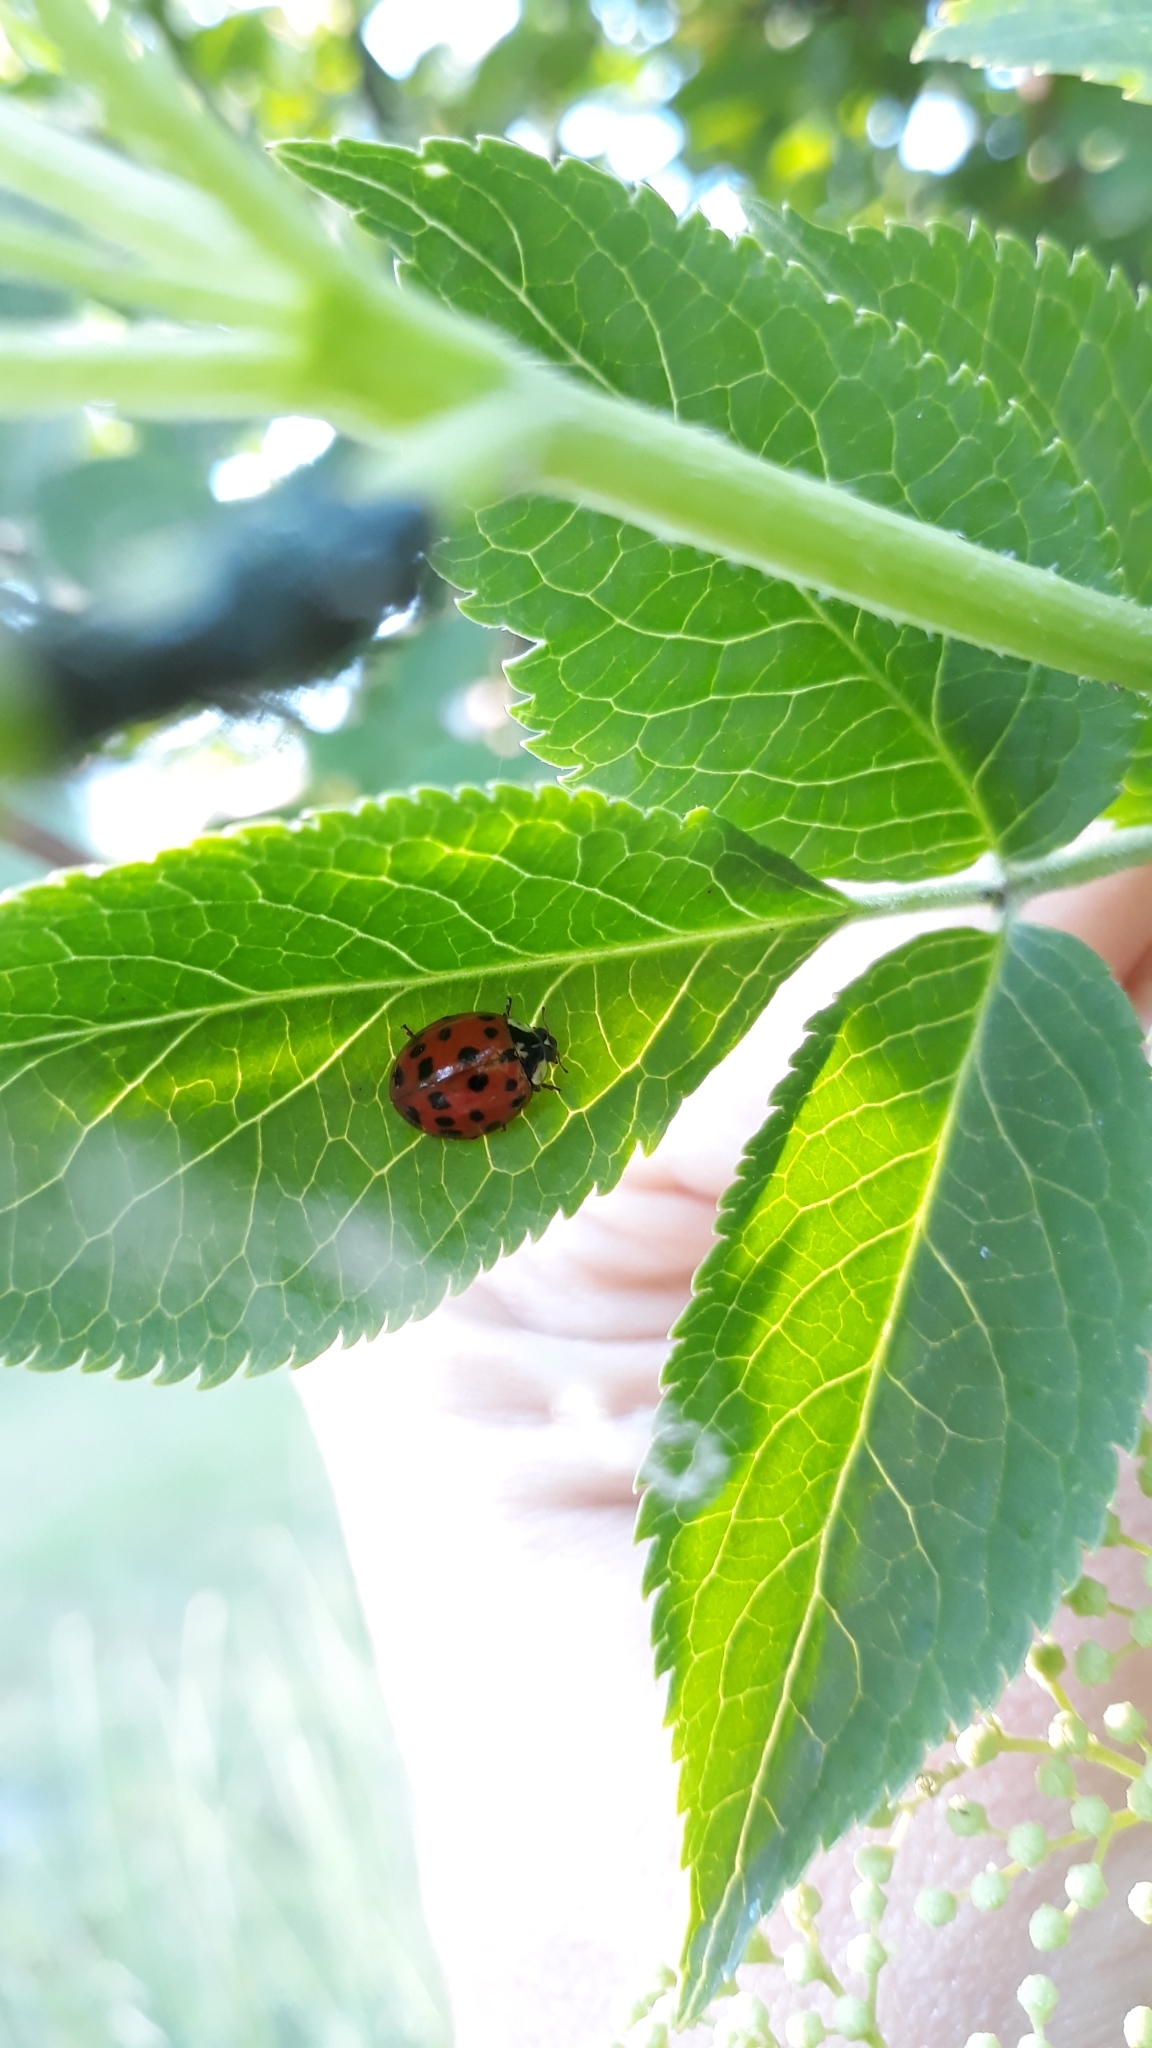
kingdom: Animalia
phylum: Arthropoda
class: Insecta
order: Coleoptera
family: Coccinellidae
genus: Harmonia
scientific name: Harmonia axyridis
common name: Harlequin ladybird
